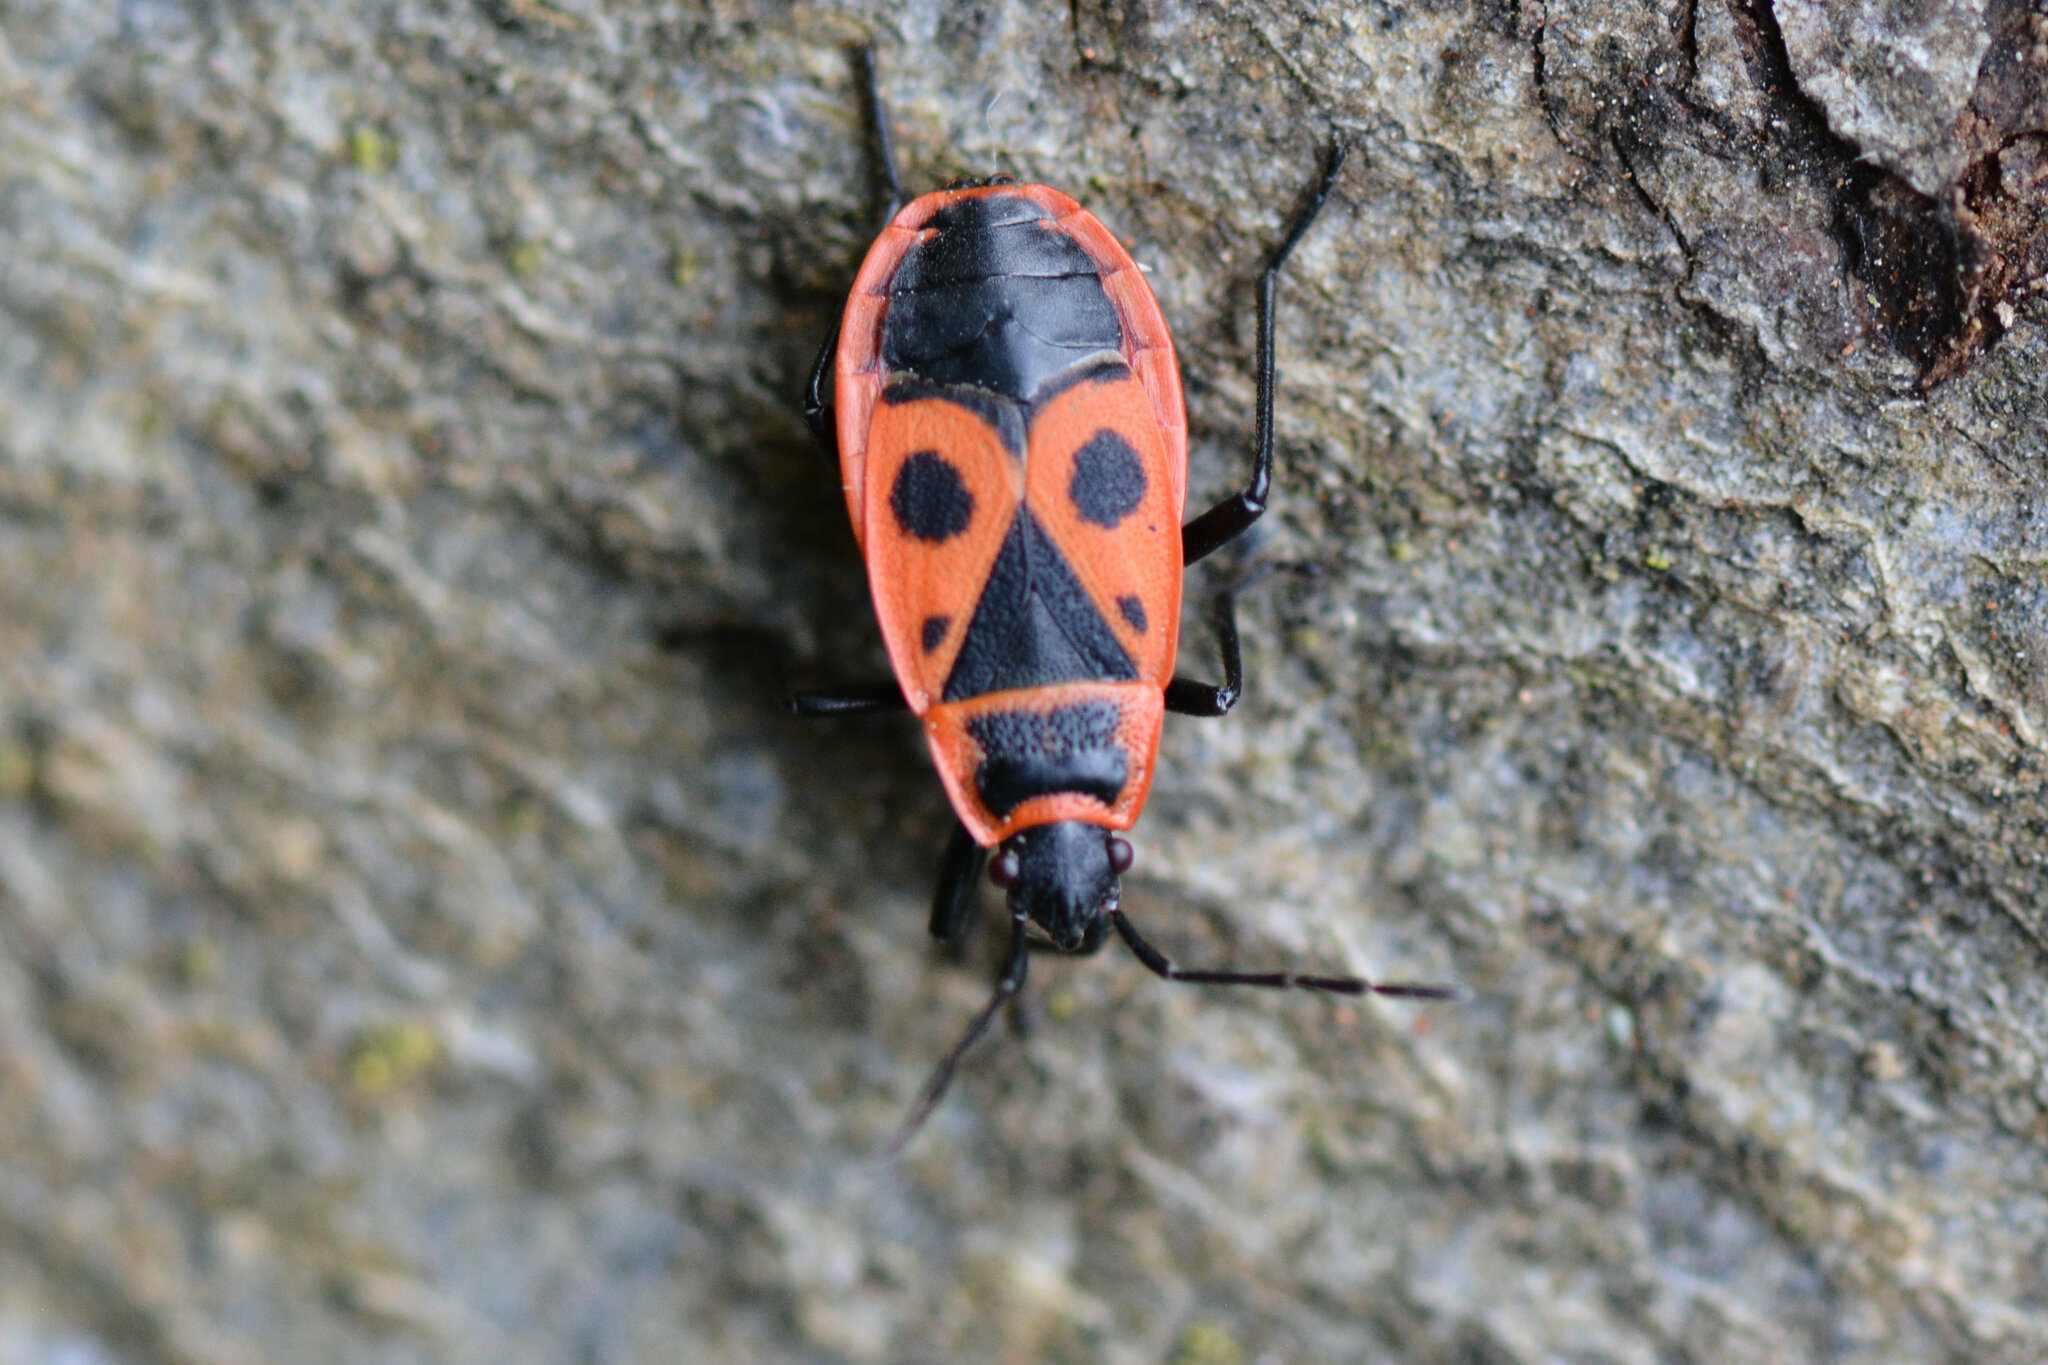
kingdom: Animalia
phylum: Arthropoda
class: Insecta
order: Hemiptera
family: Pyrrhocoridae
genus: Pyrrhocoris
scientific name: Pyrrhocoris apterus
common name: Firebug
